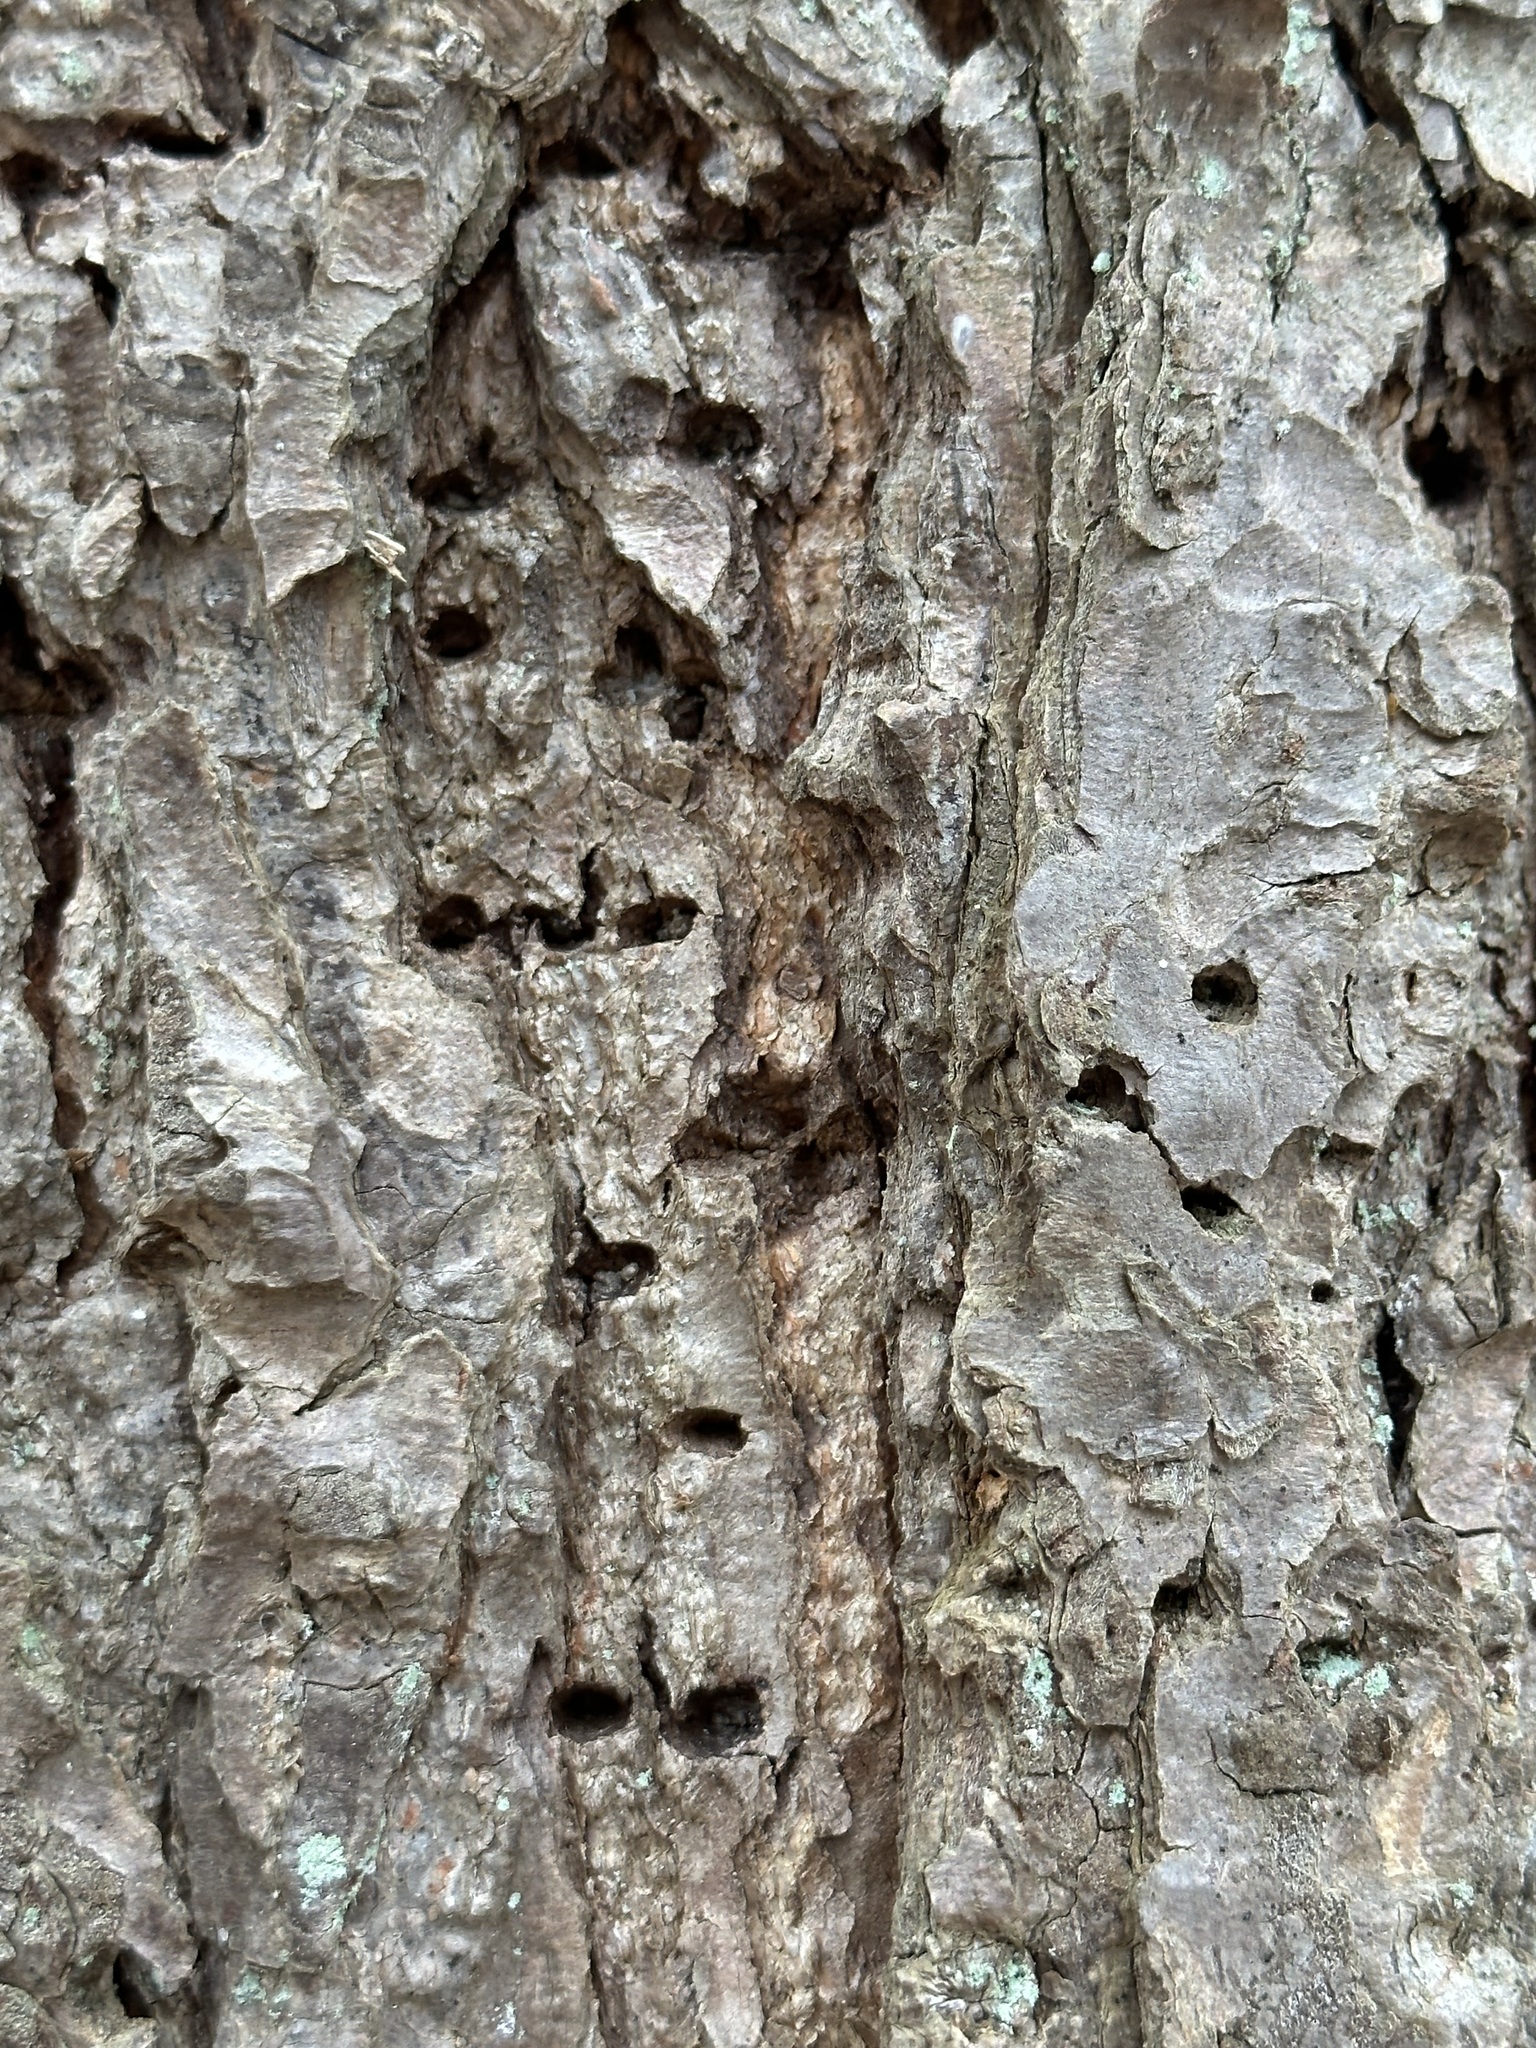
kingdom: Animalia
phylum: Chordata
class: Aves
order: Piciformes
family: Picidae
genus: Sphyrapicus
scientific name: Sphyrapicus varius
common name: Yellow-bellied sapsucker
